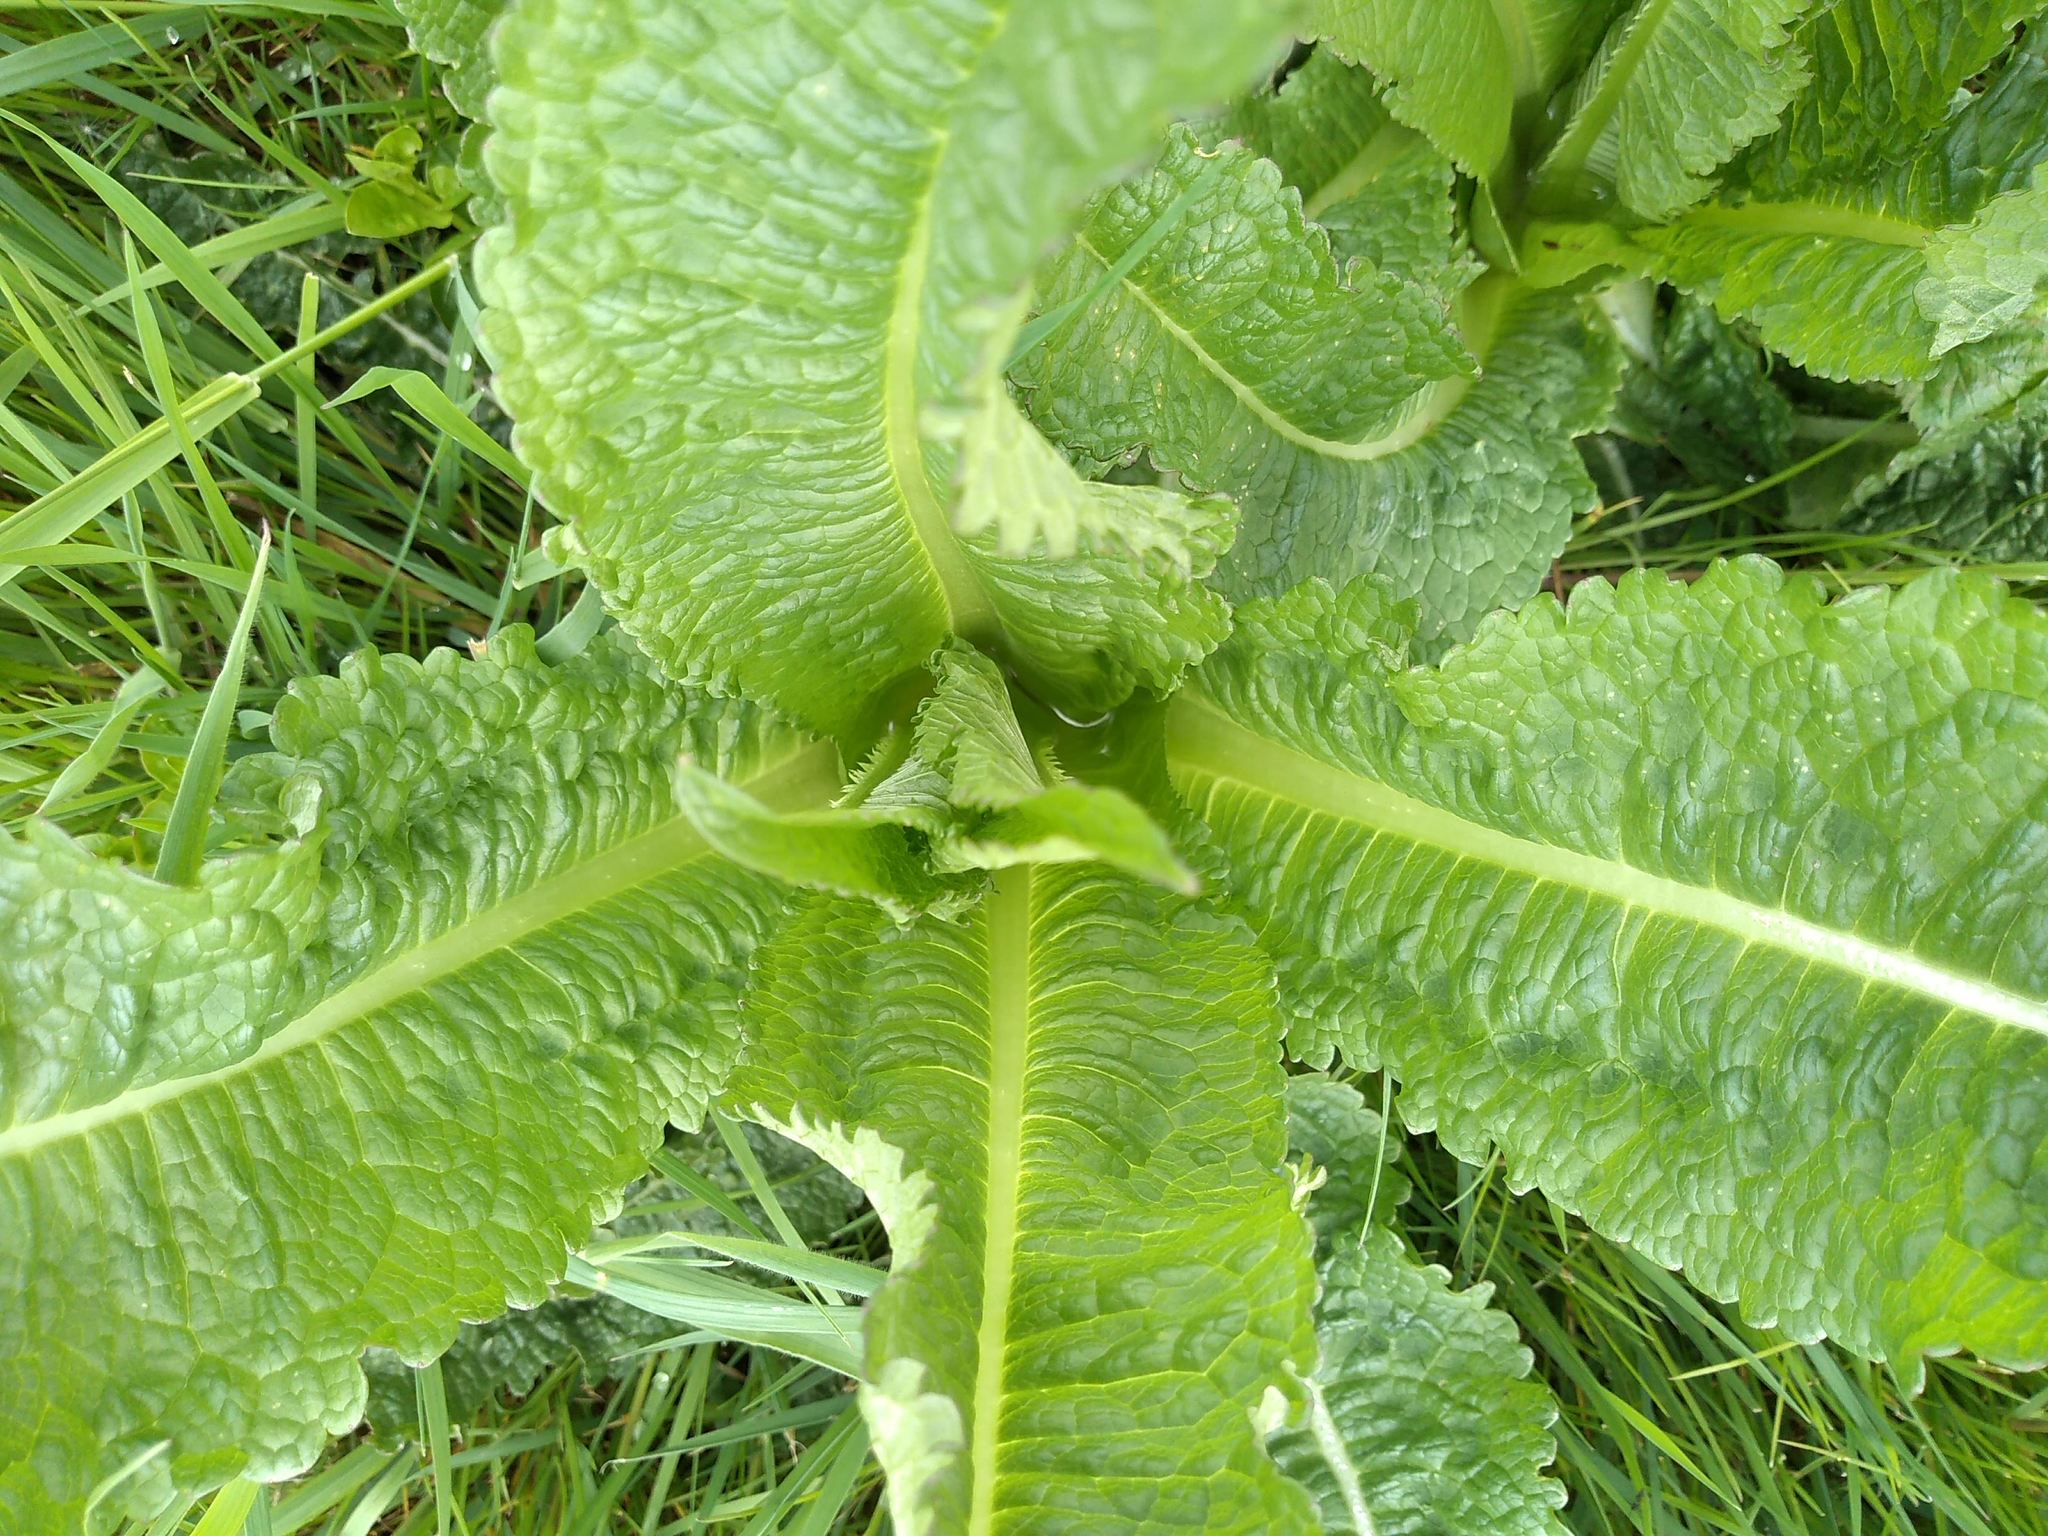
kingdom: Plantae
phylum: Tracheophyta
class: Magnoliopsida
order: Dipsacales
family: Caprifoliaceae
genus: Dipsacus
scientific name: Dipsacus fullonum
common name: Teasel
